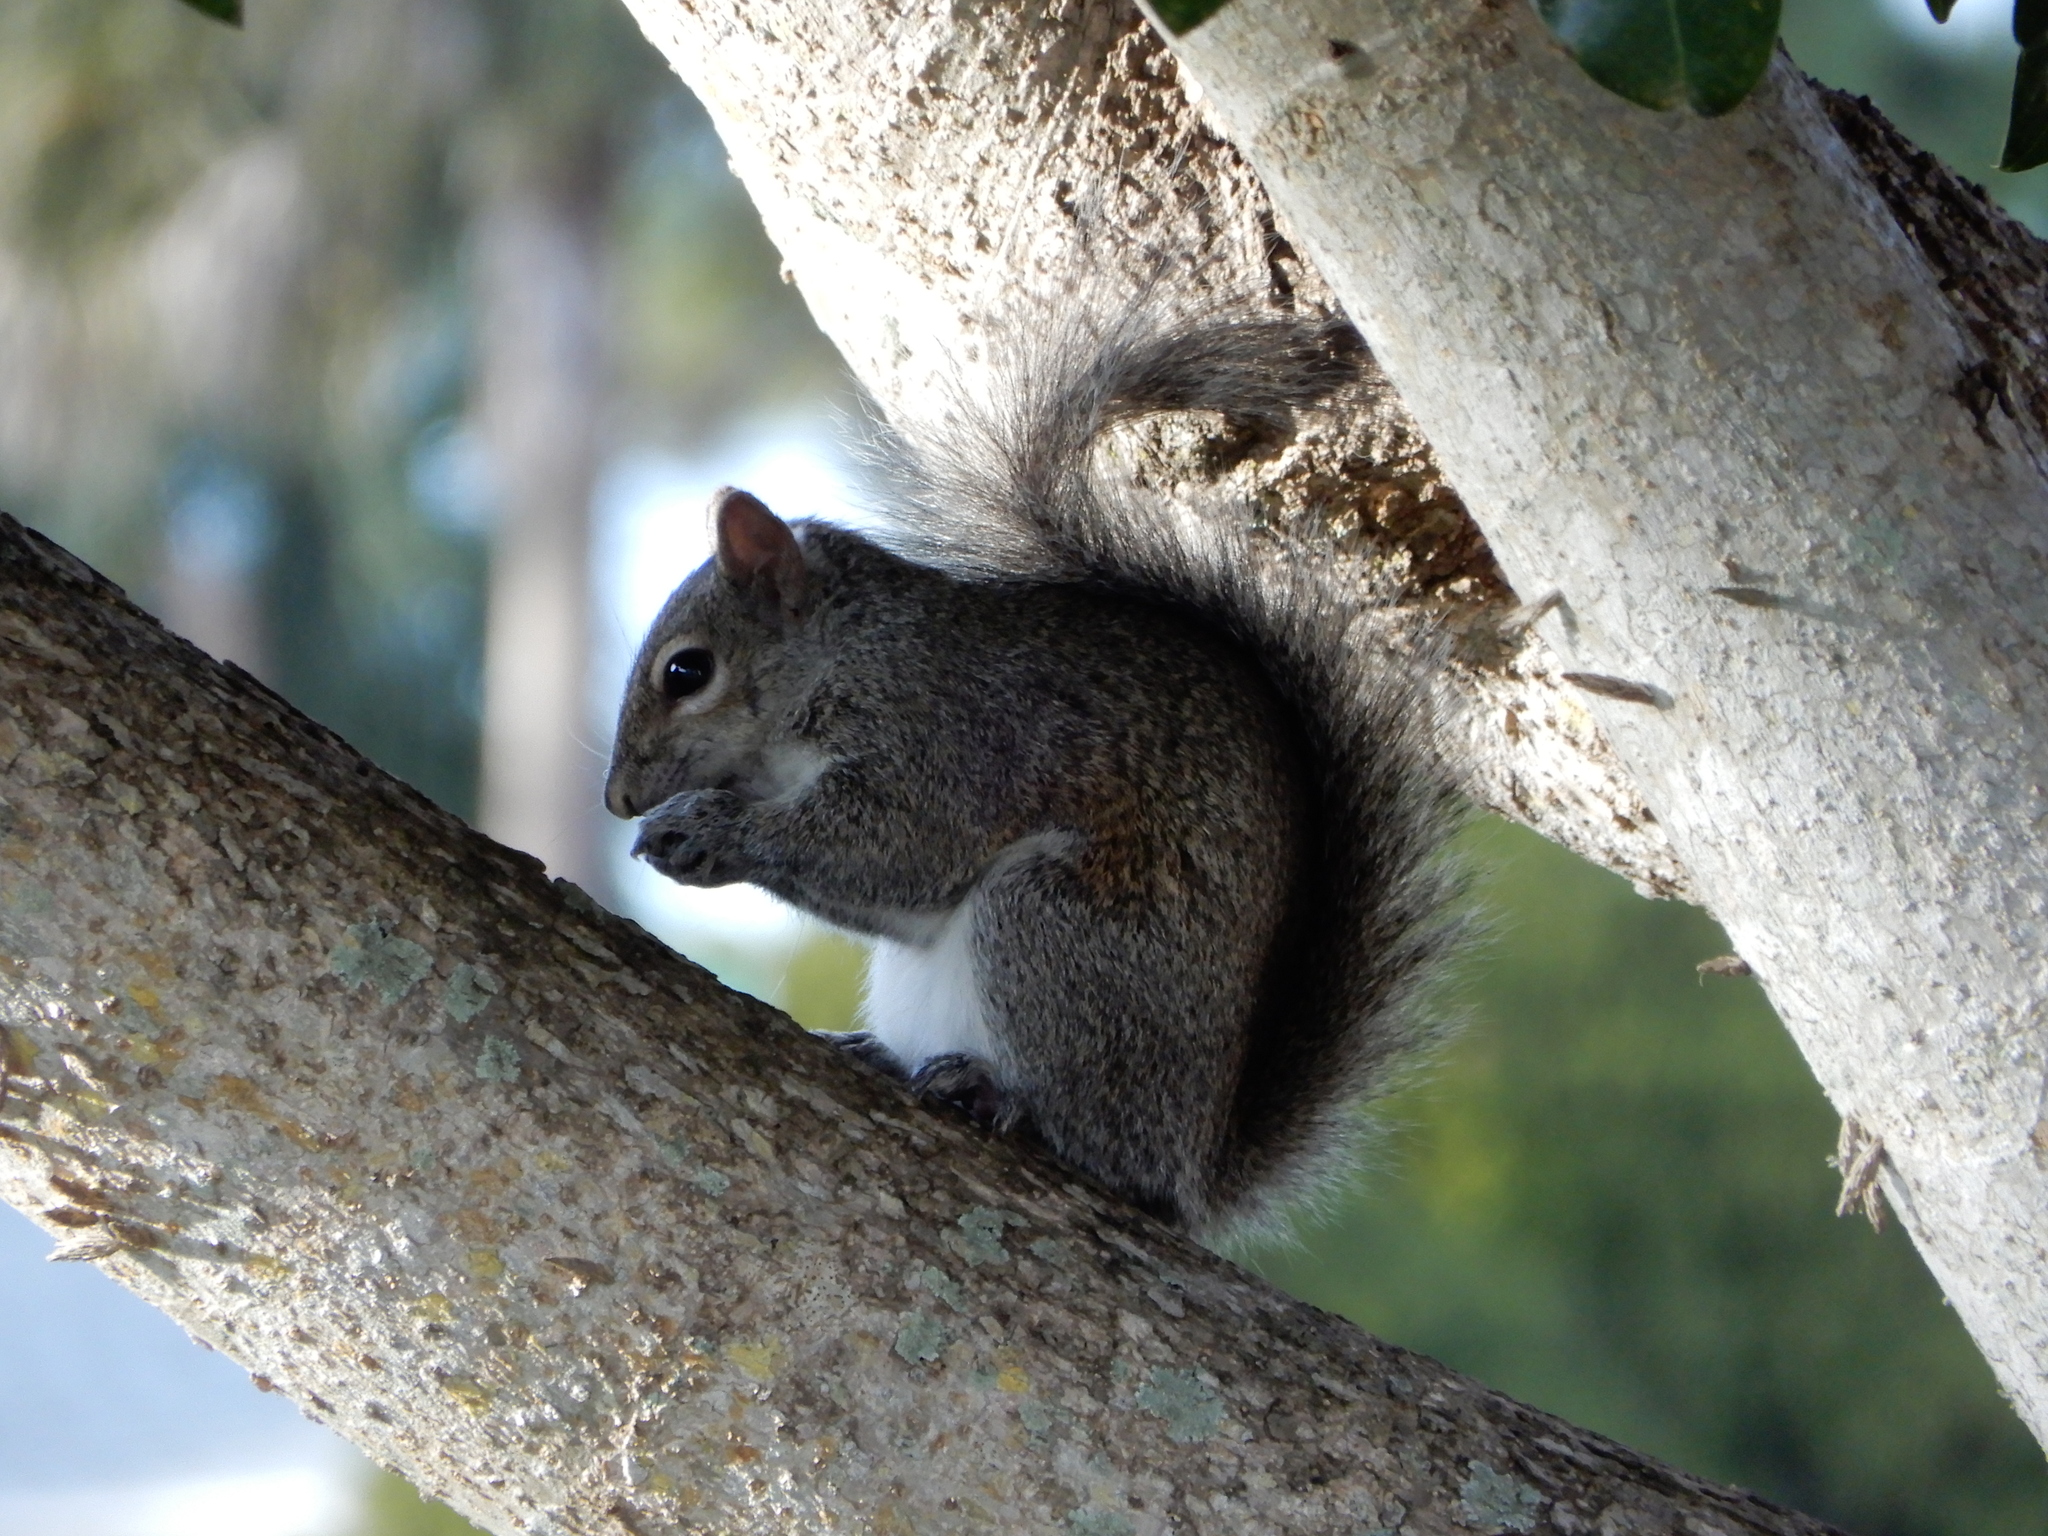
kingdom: Animalia
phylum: Chordata
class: Mammalia
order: Rodentia
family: Sciuridae
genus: Sciurus
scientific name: Sciurus carolinensis
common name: Eastern gray squirrel
